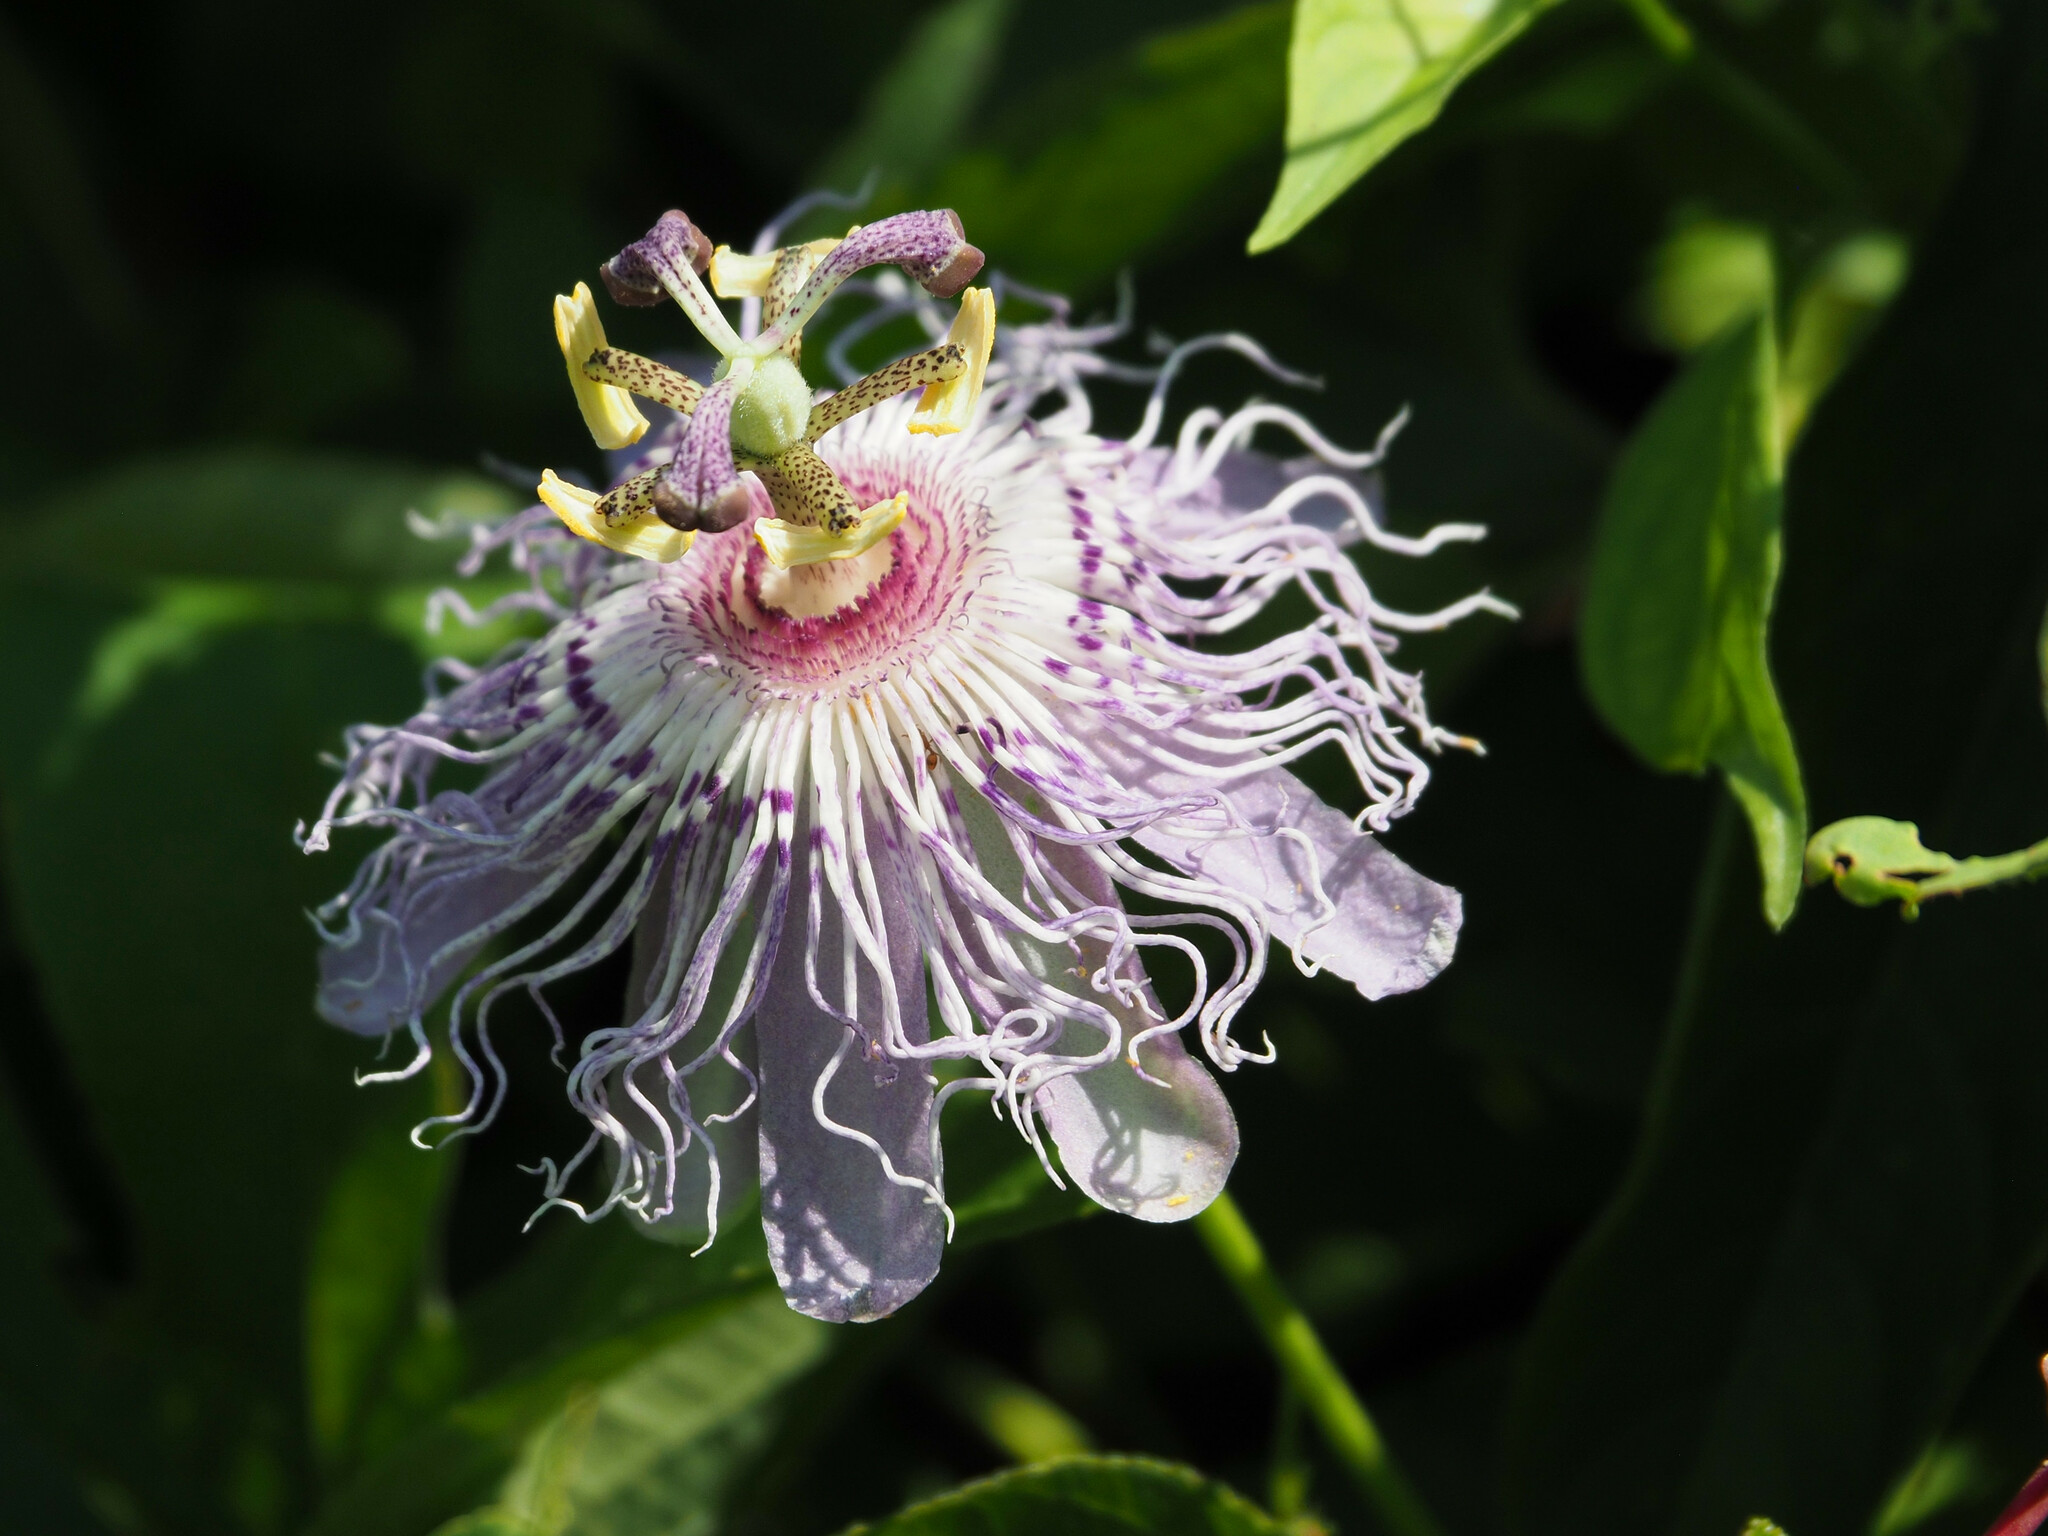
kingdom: Plantae
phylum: Tracheophyta
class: Magnoliopsida
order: Malpighiales
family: Passifloraceae
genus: Passiflora
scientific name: Passiflora incarnata
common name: Apricot-vine
